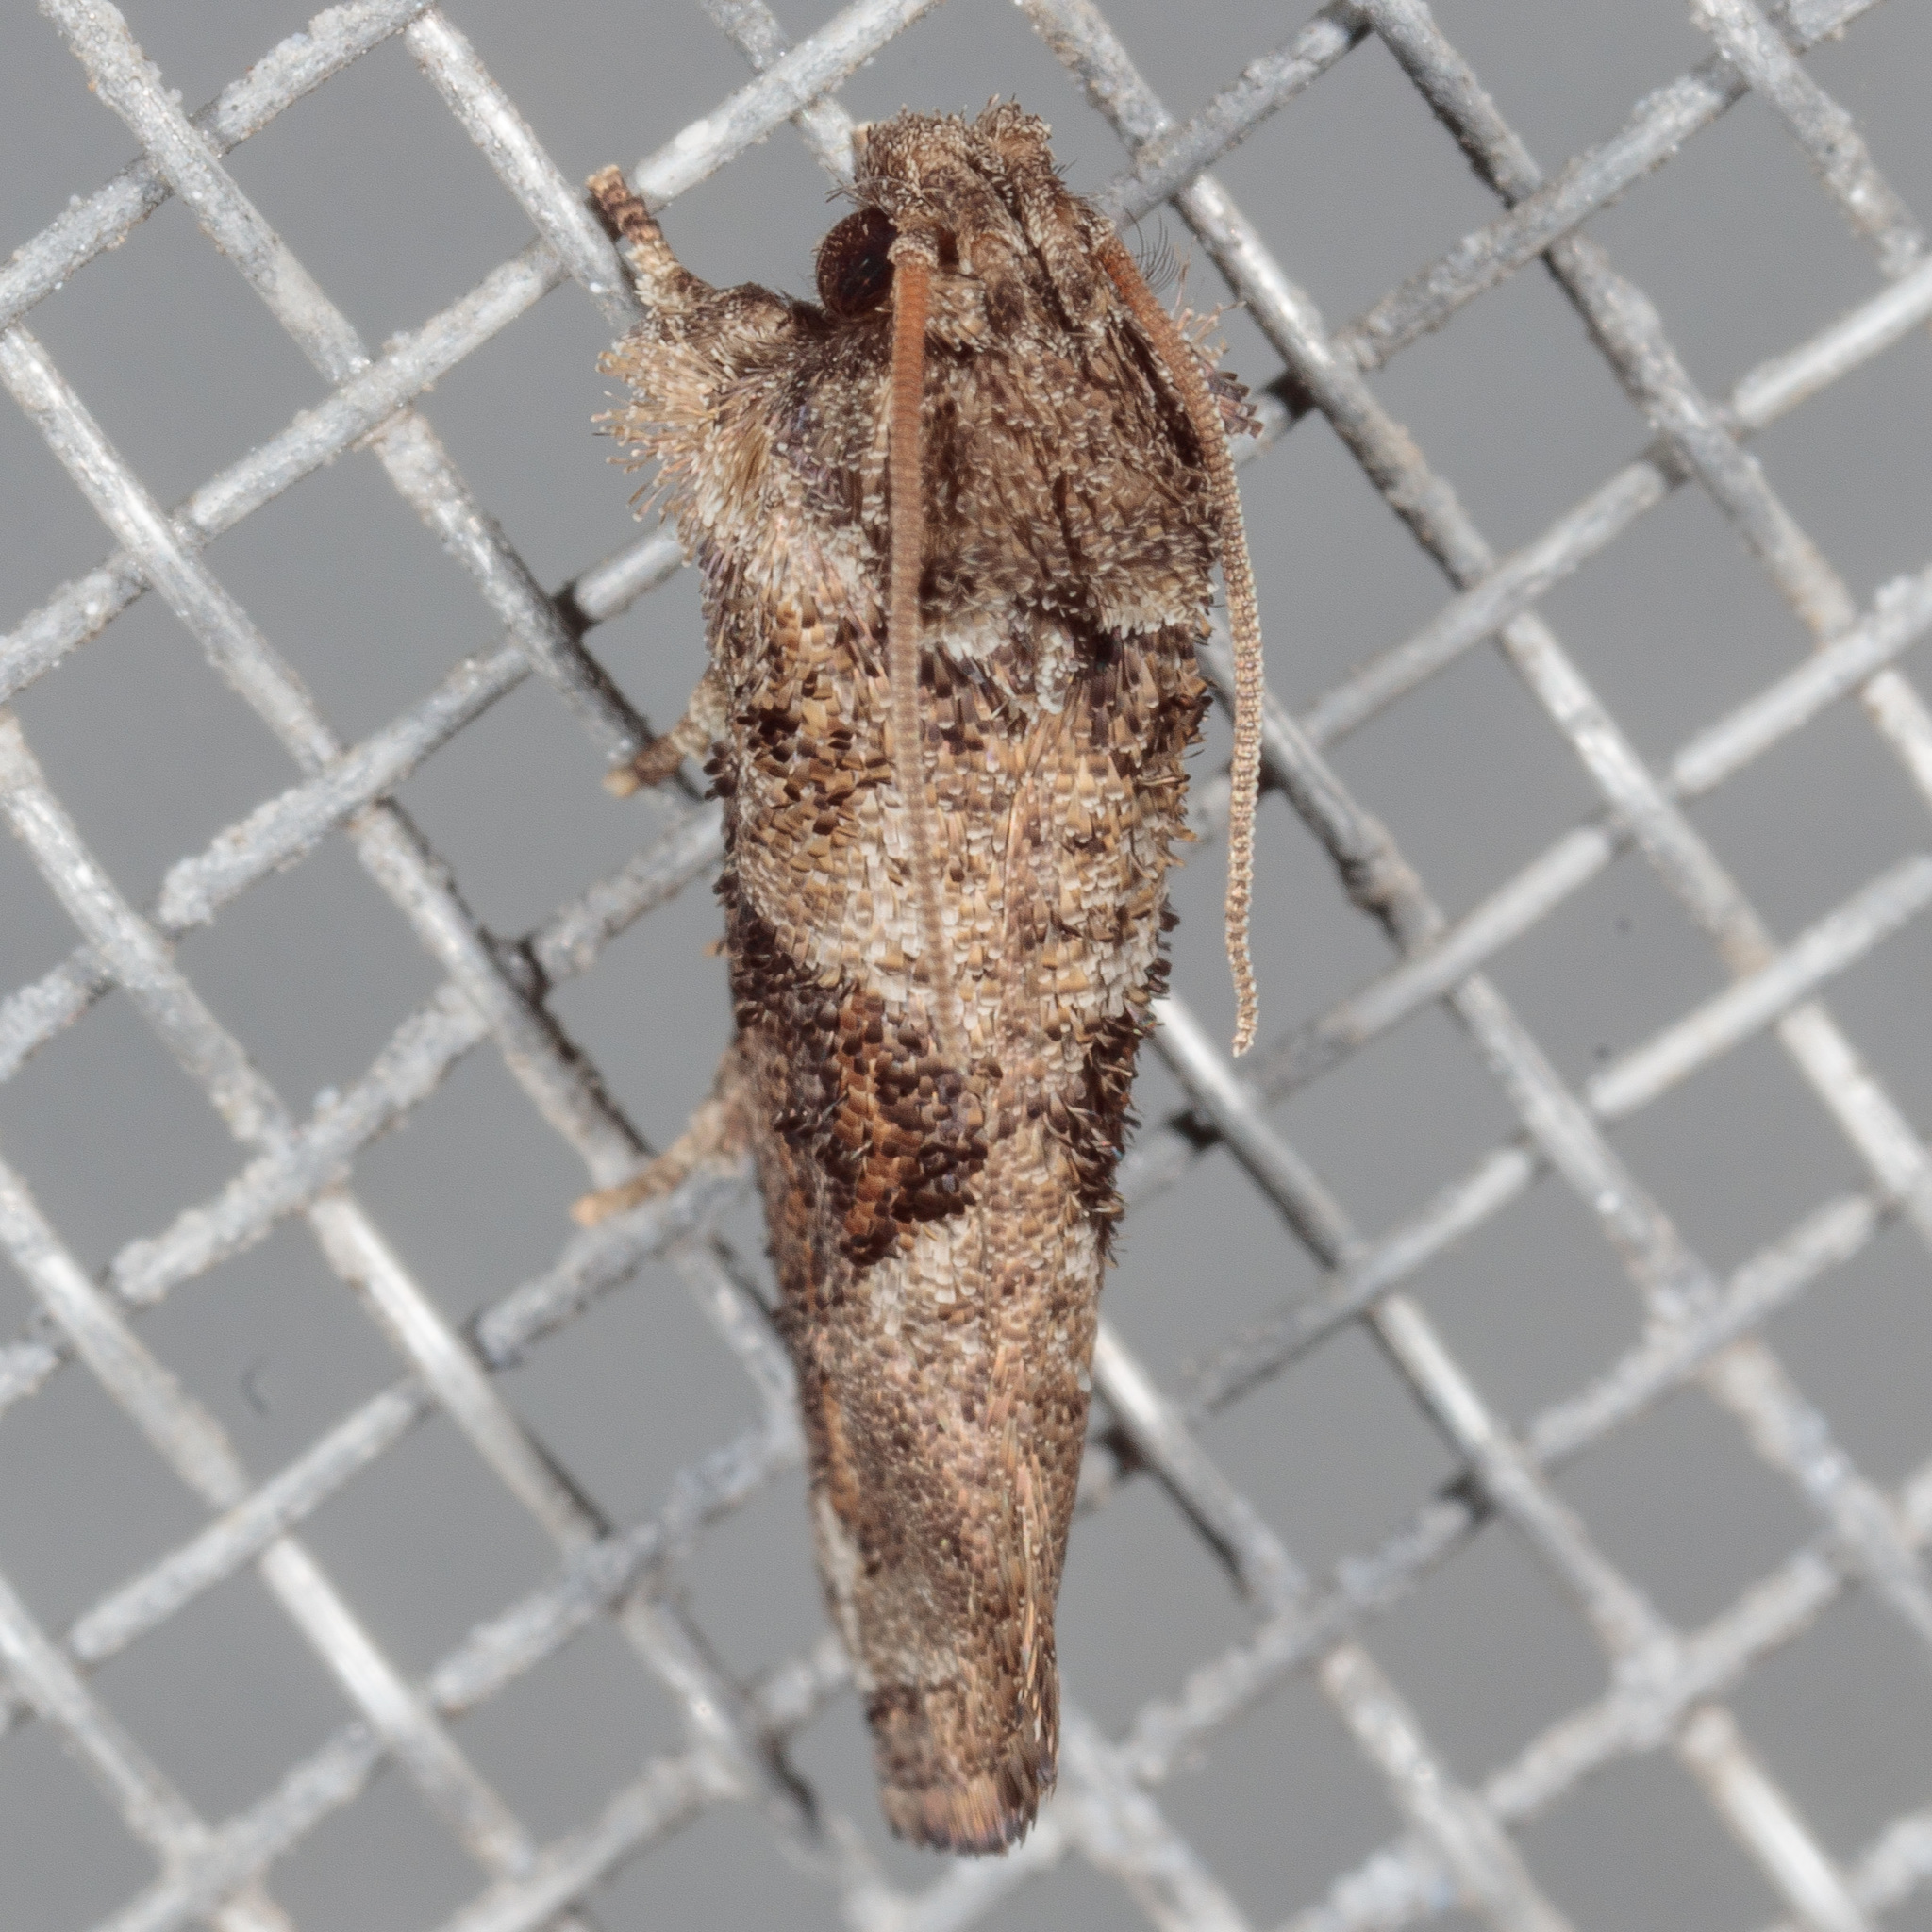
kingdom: Animalia
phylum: Arthropoda
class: Insecta
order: Lepidoptera
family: Tineidae
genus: Acrolophus
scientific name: Acrolophus piger
